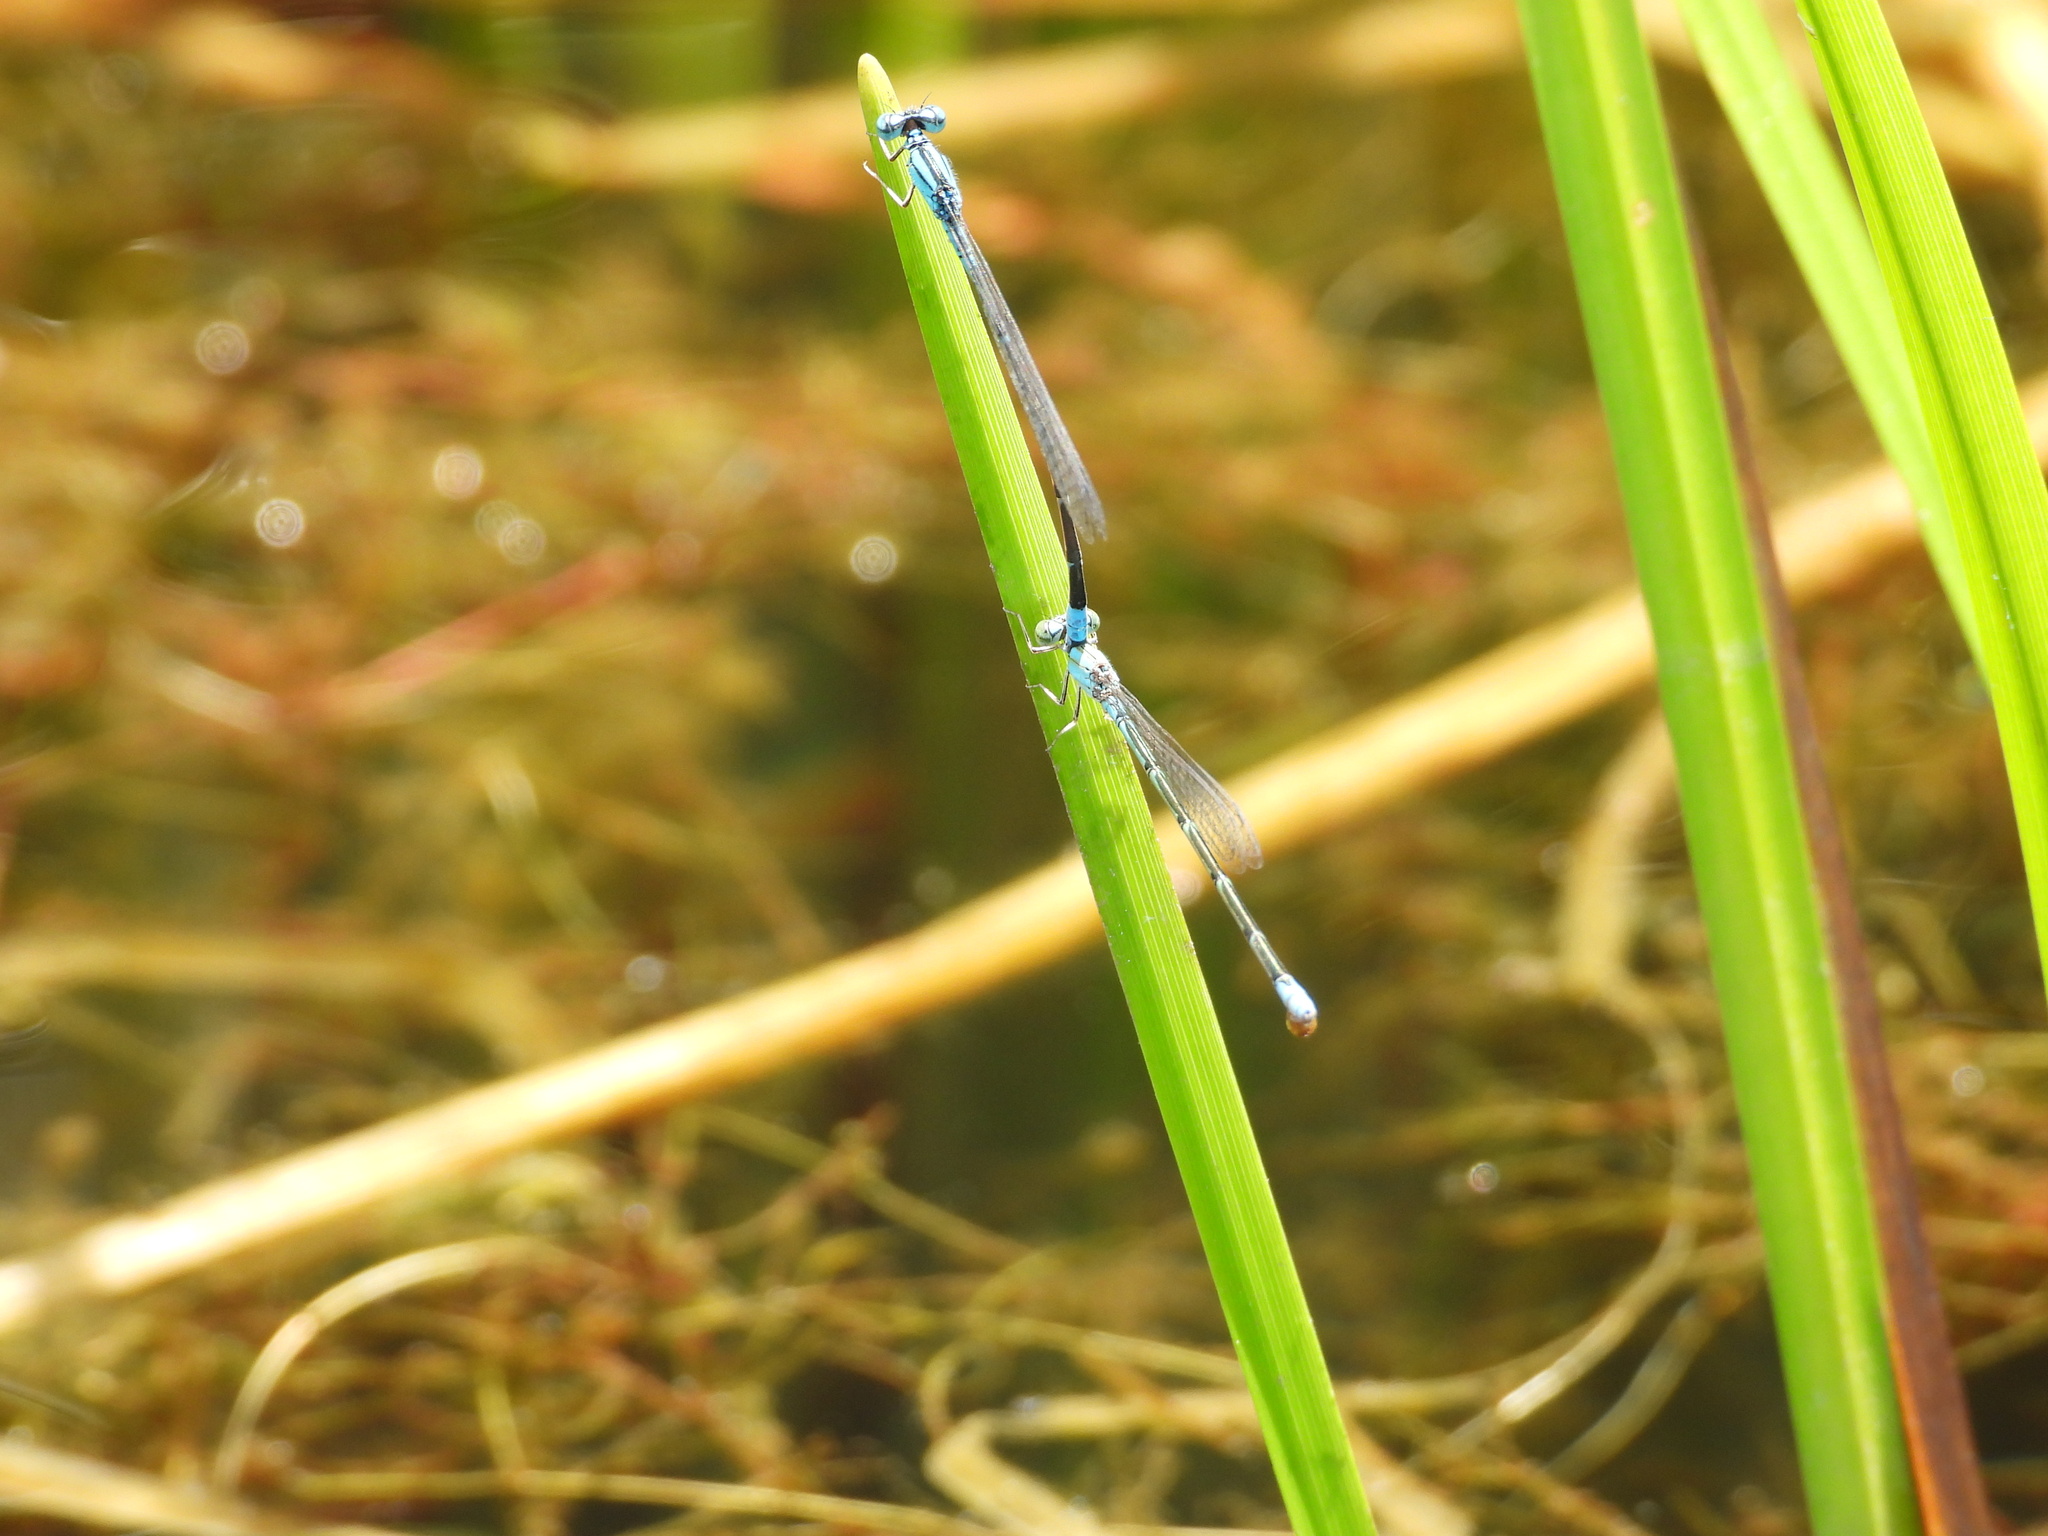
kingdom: Animalia
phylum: Arthropoda
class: Insecta
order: Odonata
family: Coenagrionidae
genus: Enallagma
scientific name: Enallagma traviatum
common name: Slender bluet
